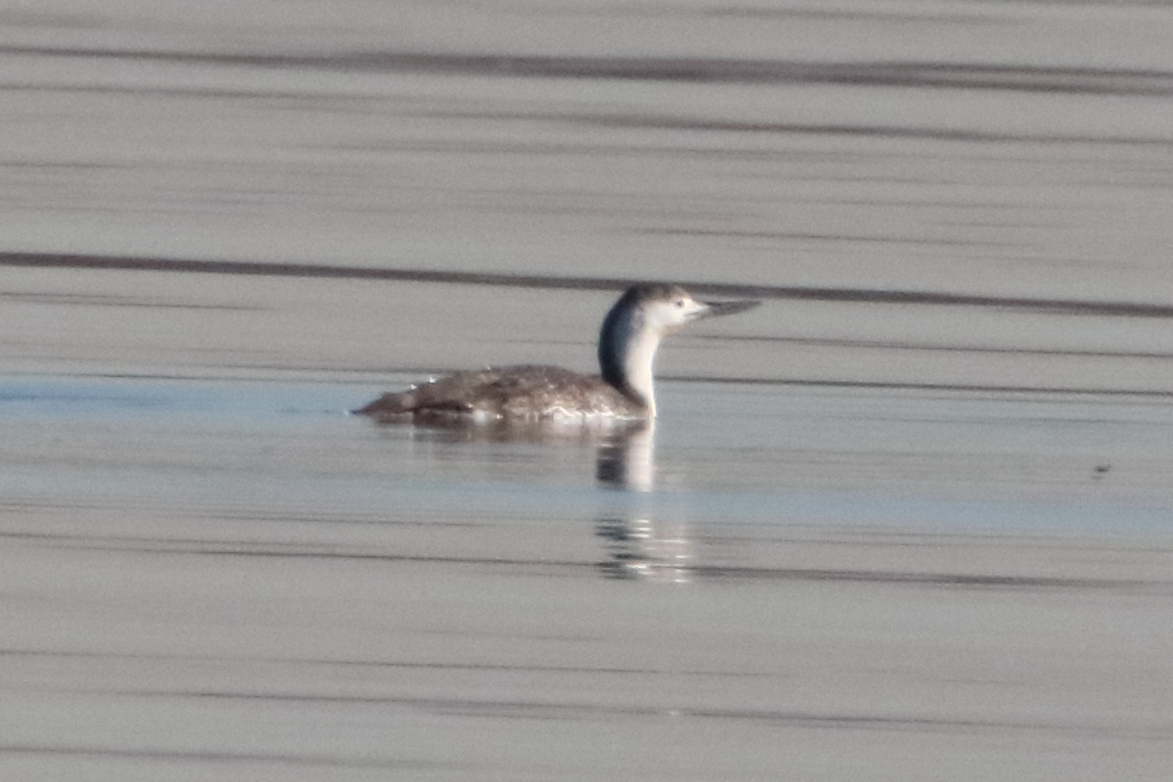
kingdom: Animalia
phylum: Chordata
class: Aves
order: Gaviiformes
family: Gaviidae
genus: Gavia
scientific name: Gavia stellata
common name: Red-throated loon
